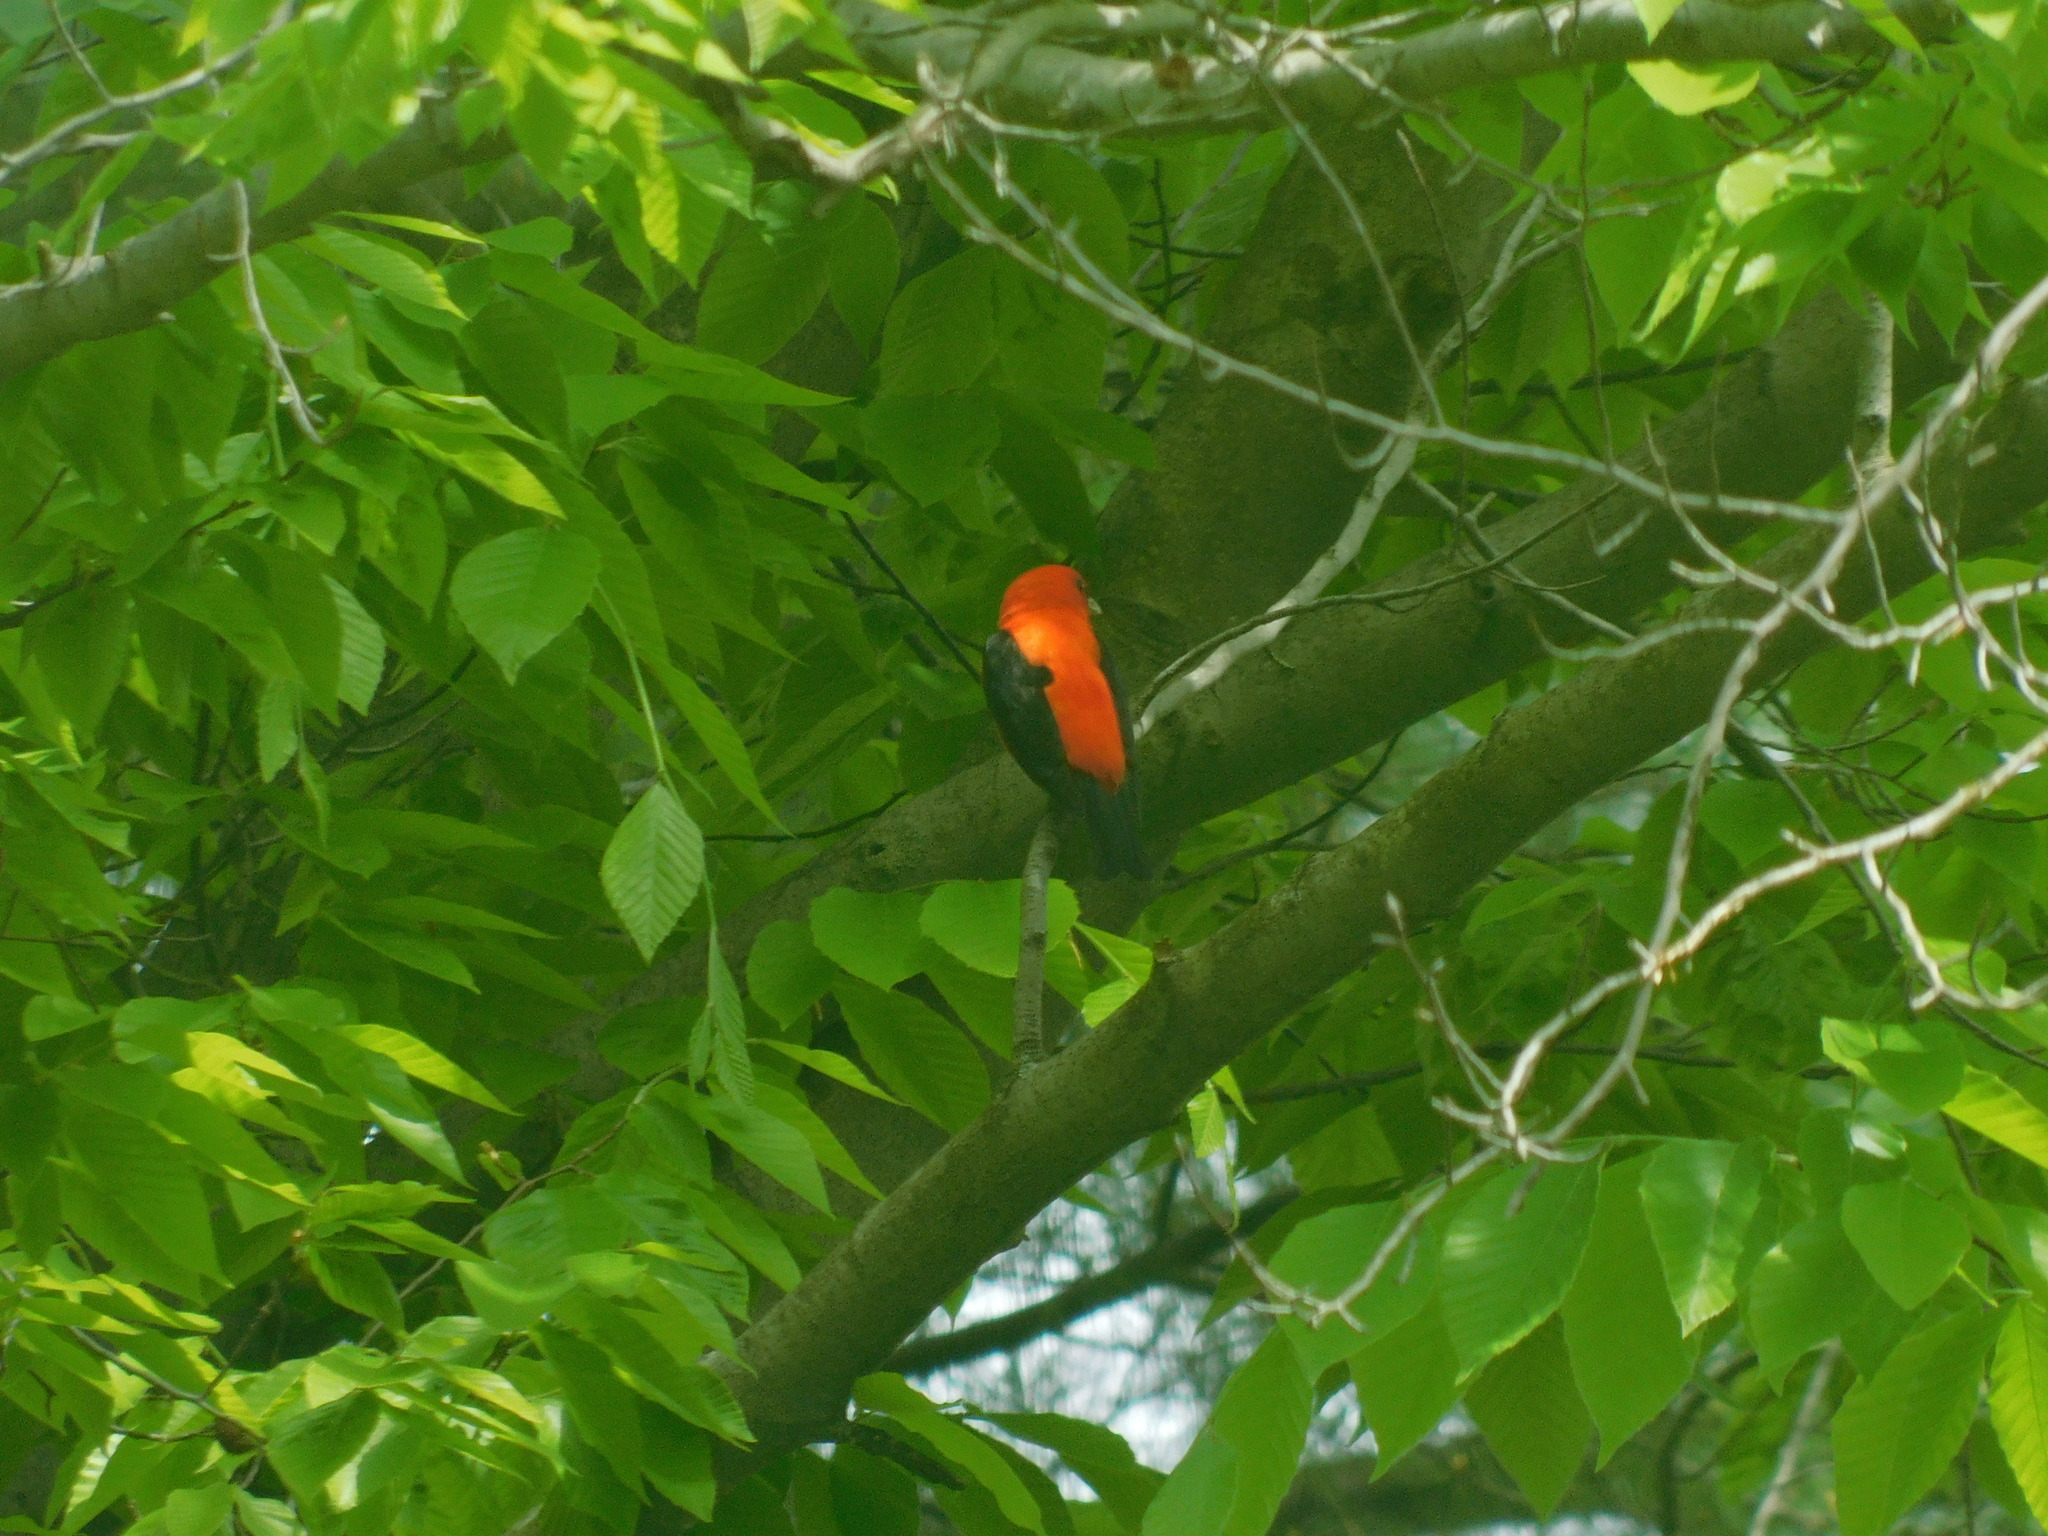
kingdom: Animalia
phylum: Chordata
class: Aves
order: Passeriformes
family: Cardinalidae
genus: Piranga
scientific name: Piranga olivacea
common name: Scarlet tanager
